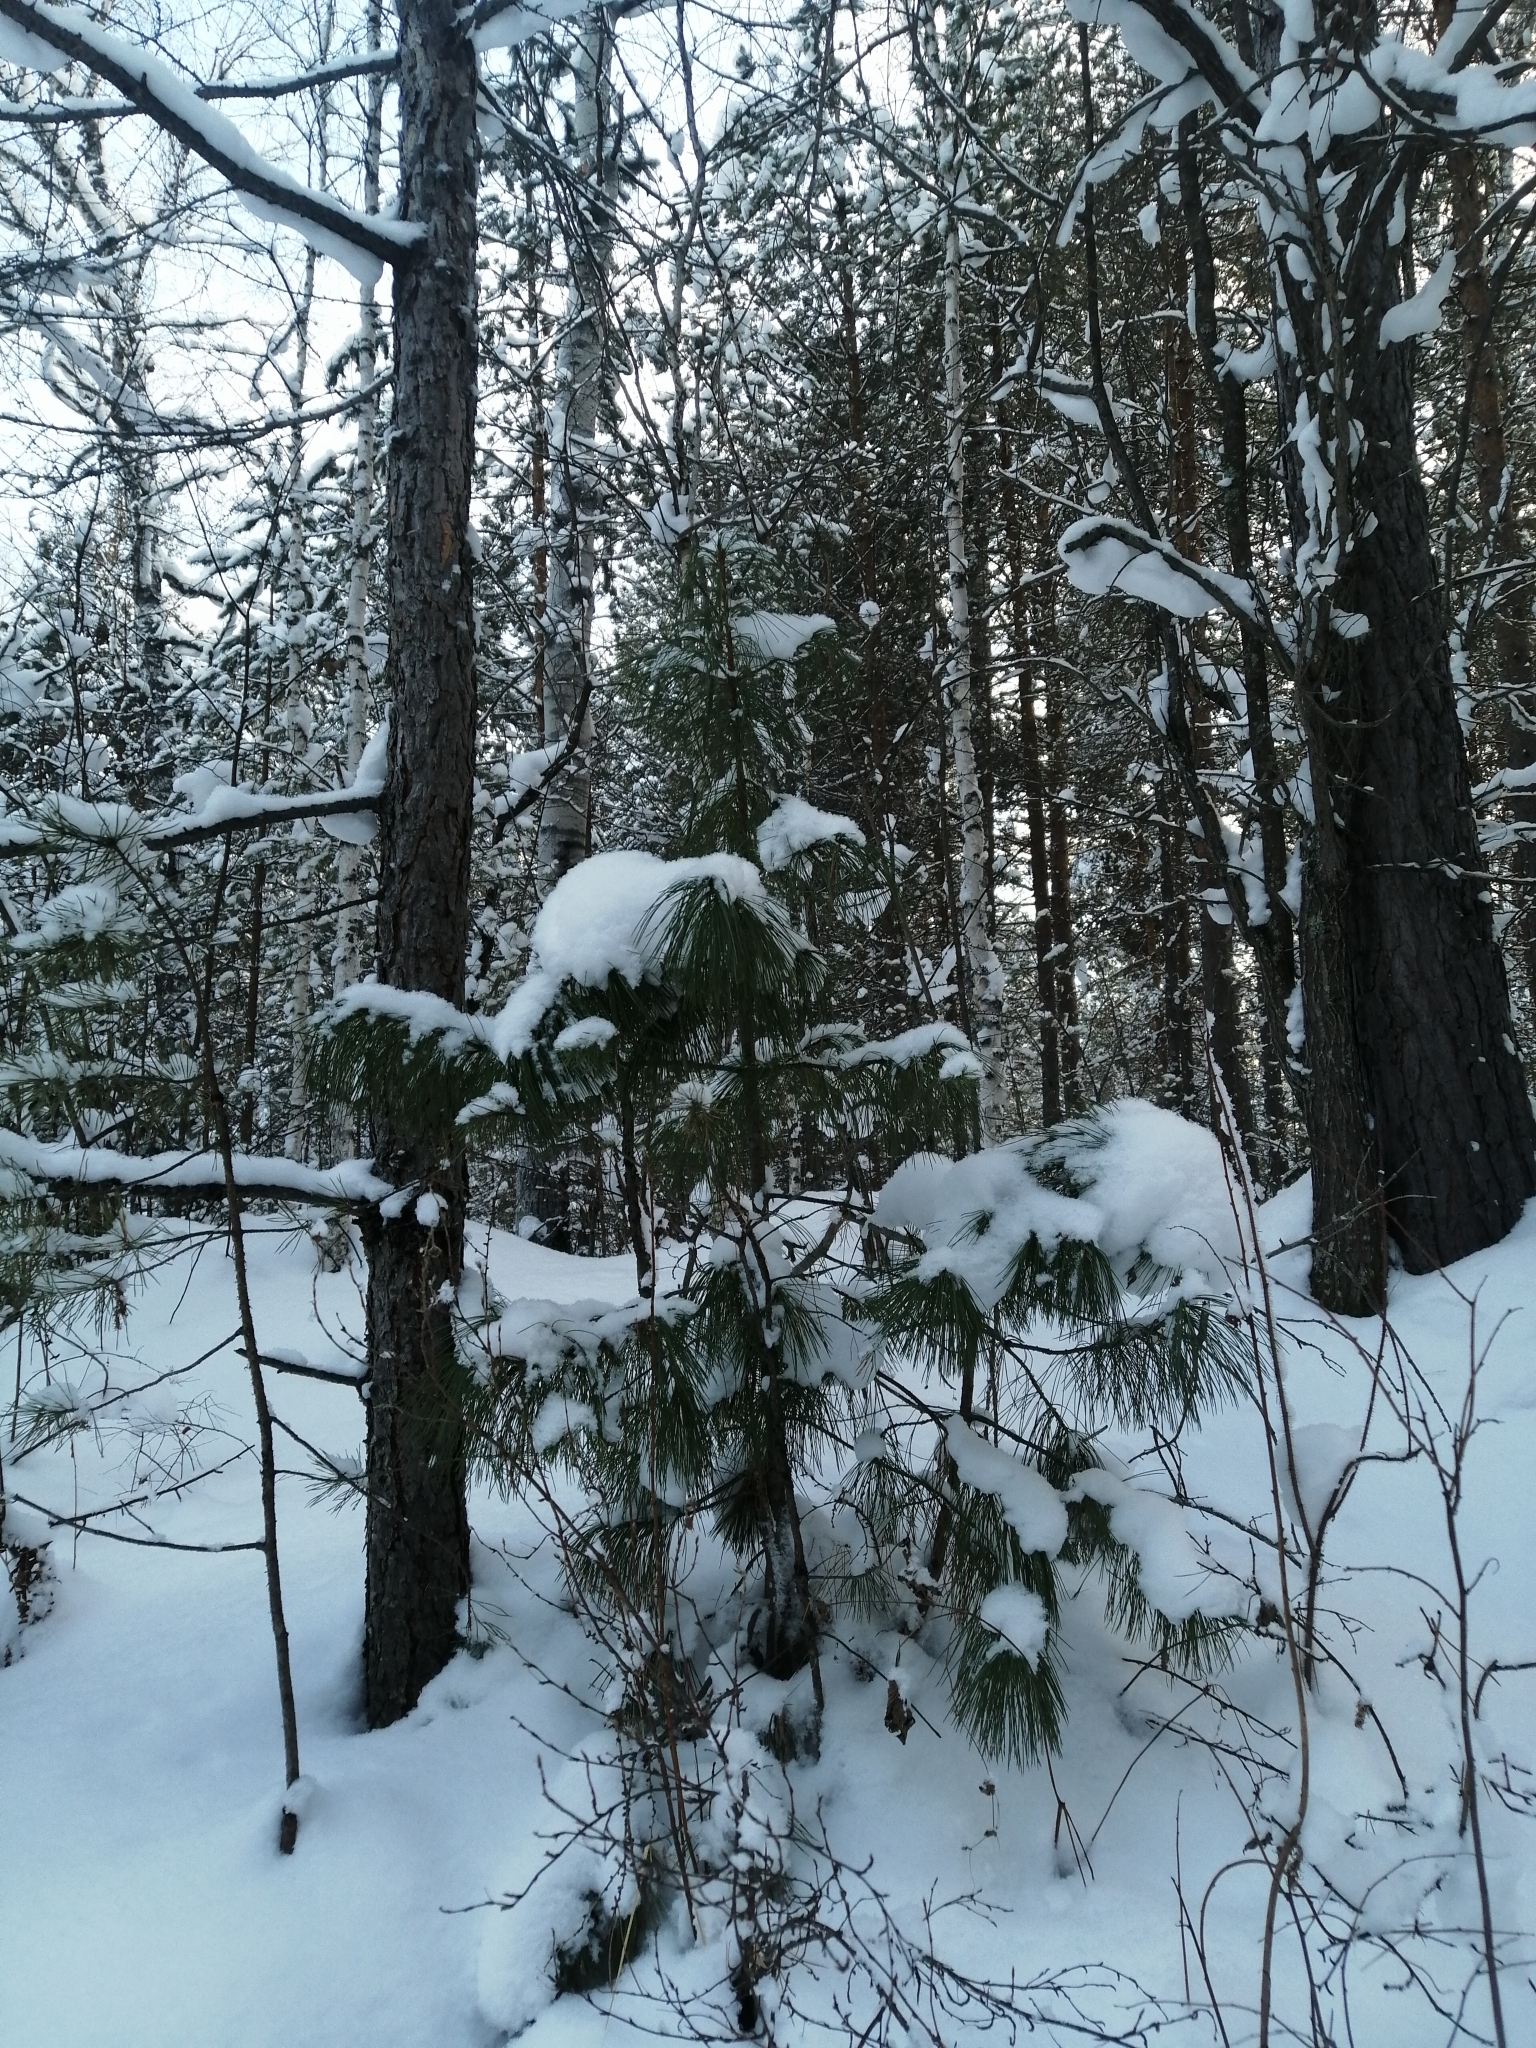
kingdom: Plantae
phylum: Tracheophyta
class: Pinopsida
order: Pinales
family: Pinaceae
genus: Pinus
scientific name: Pinus sibirica
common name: Siberian pine
